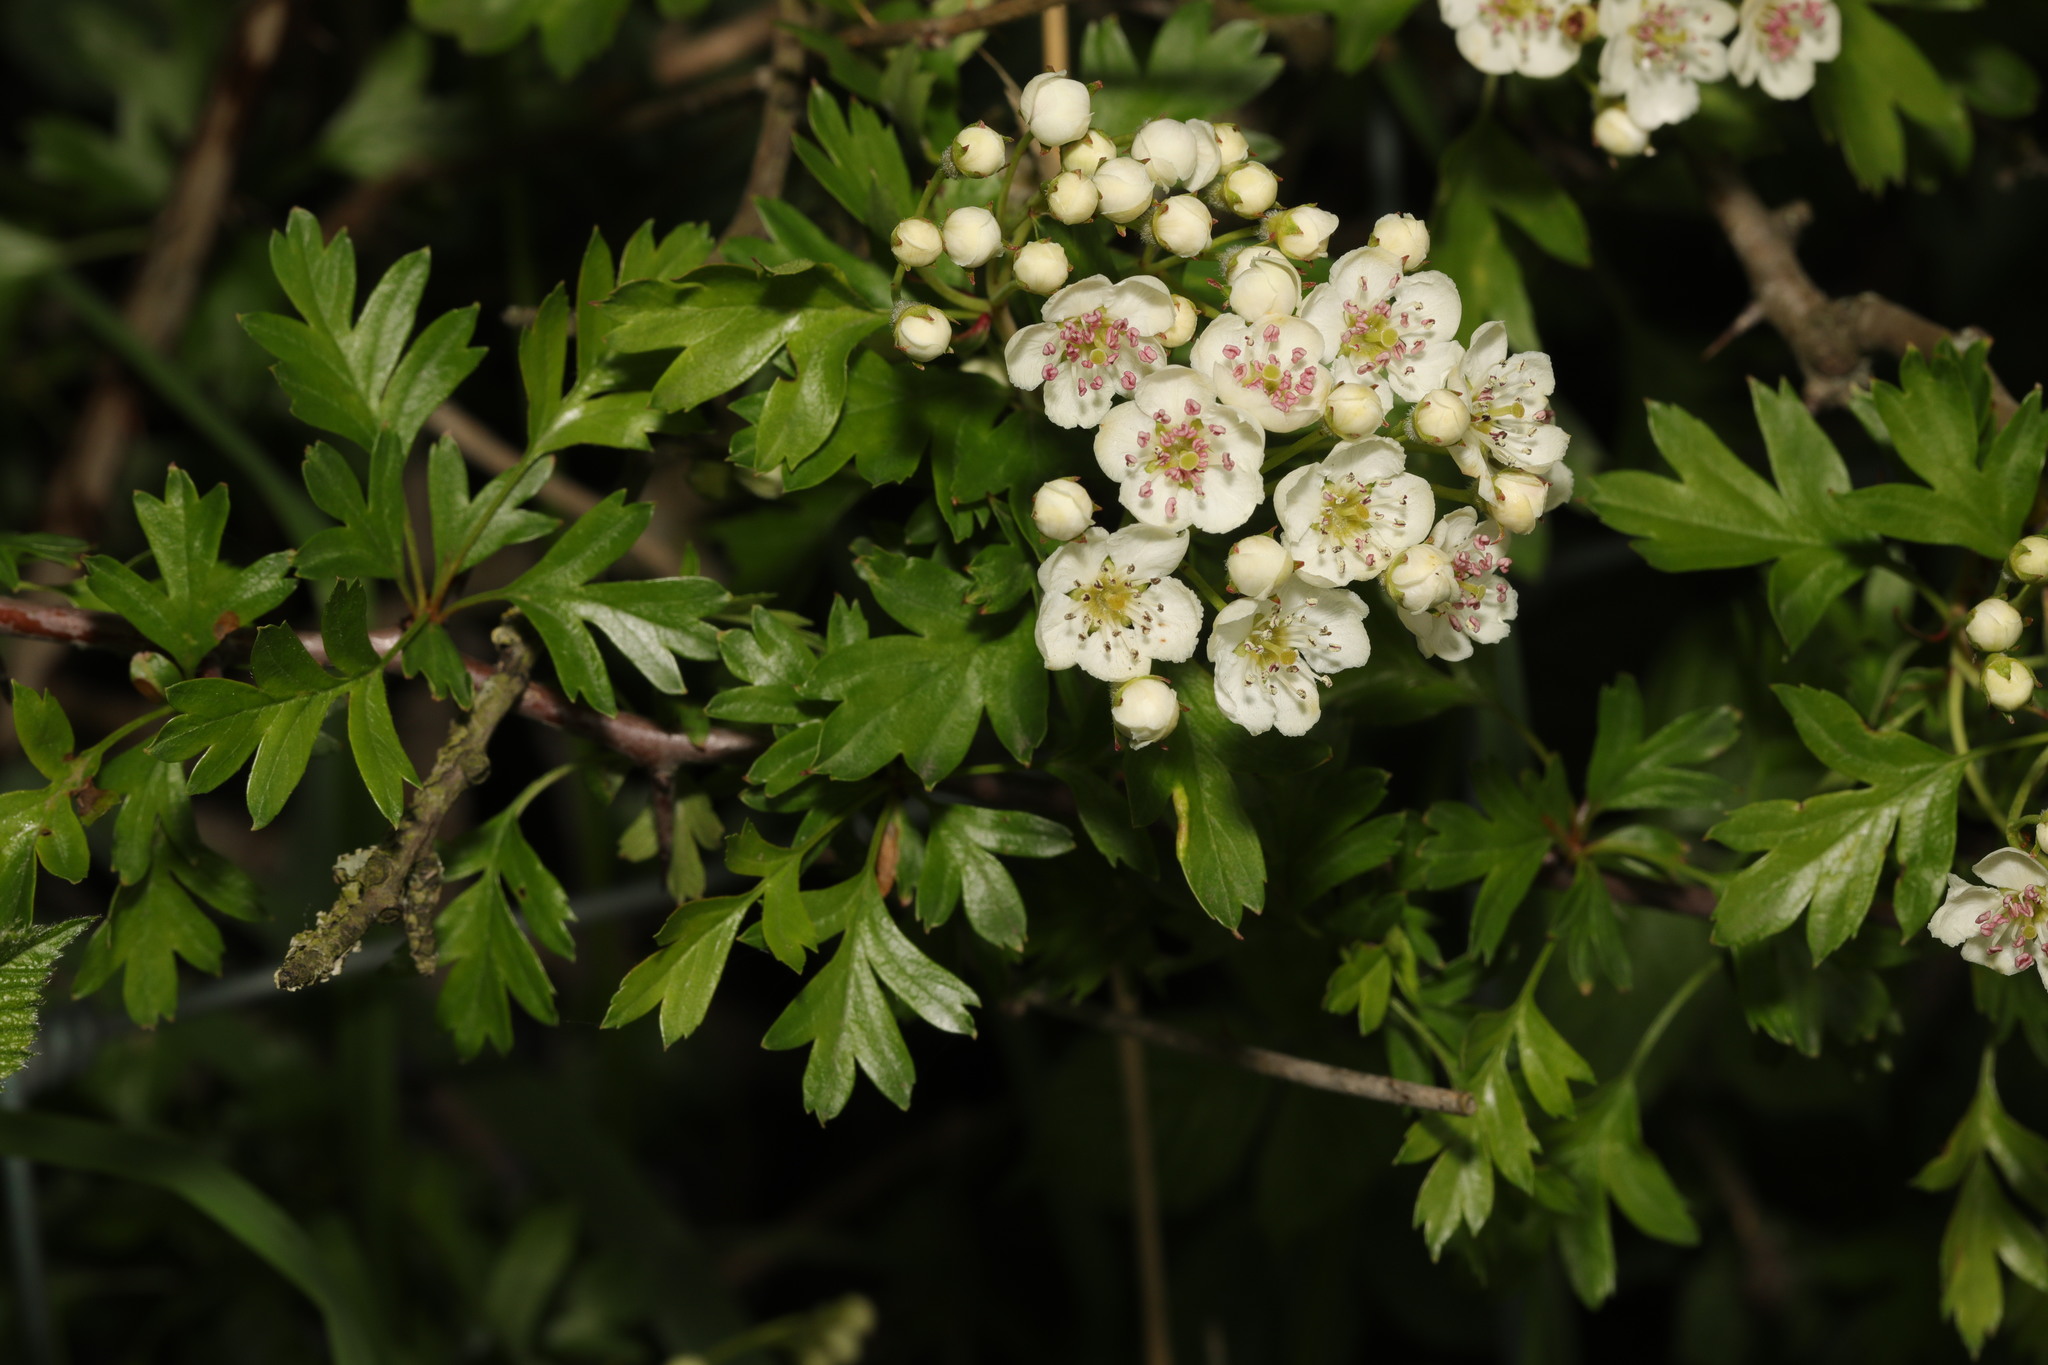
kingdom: Plantae
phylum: Tracheophyta
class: Magnoliopsida
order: Rosales
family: Rosaceae
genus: Crataegus
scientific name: Crataegus monogyna
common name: Hawthorn
